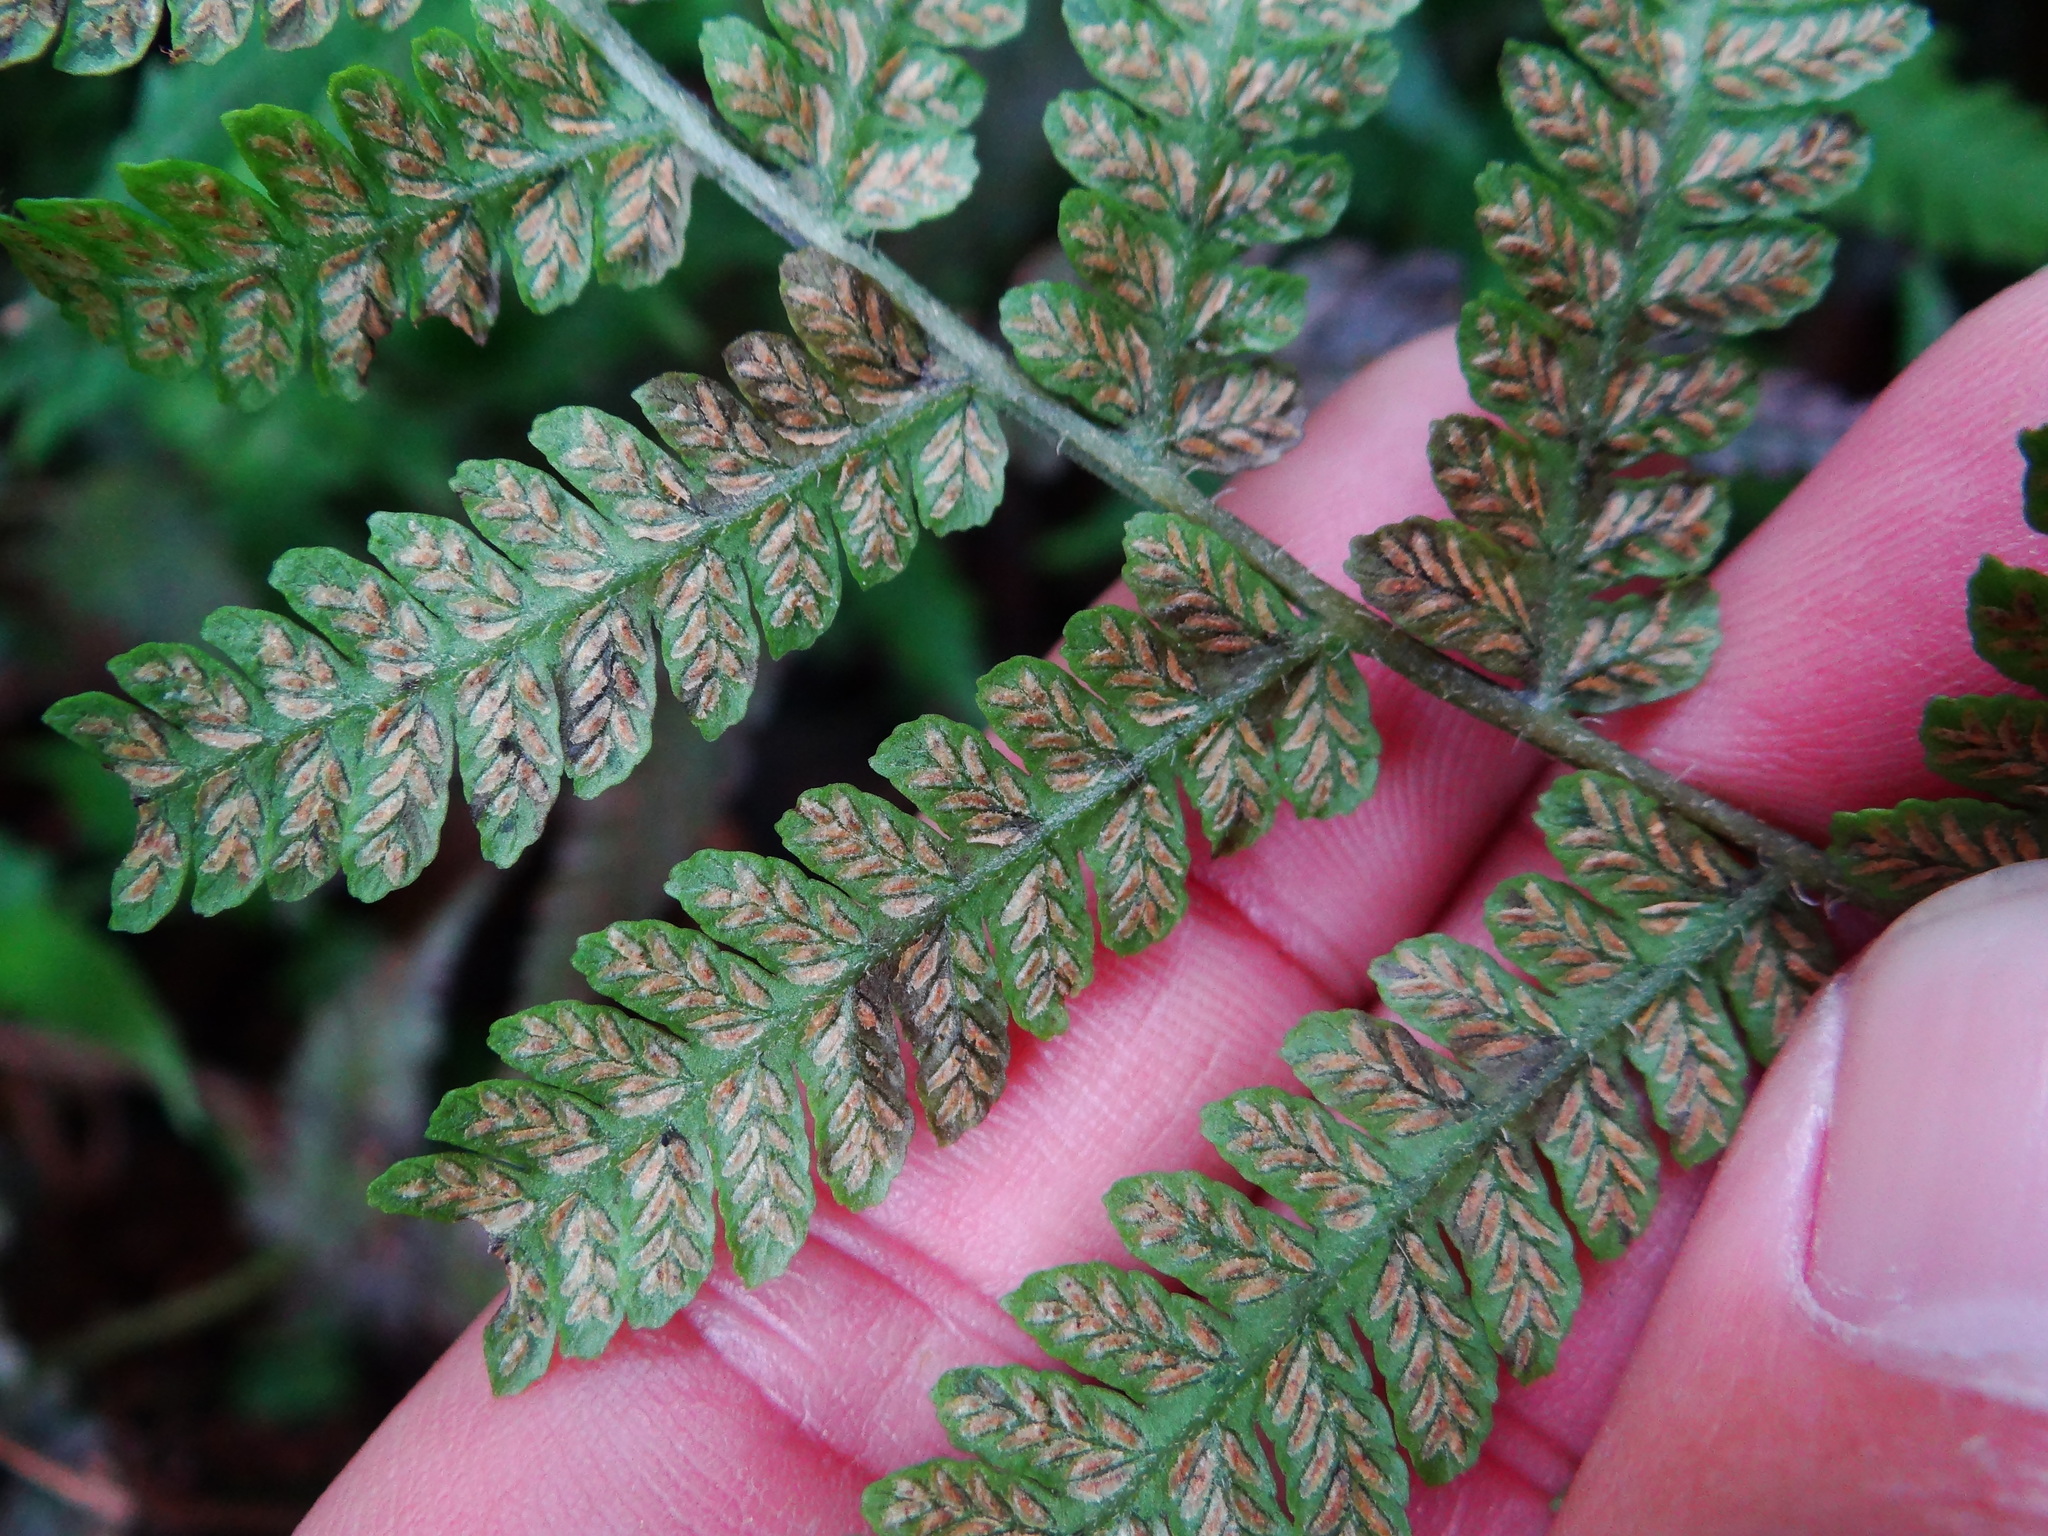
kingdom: Plantae
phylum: Tracheophyta
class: Polypodiopsida
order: Polypodiales
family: Athyriaceae
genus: Deparia
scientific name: Deparia petersenii
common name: Japanese false spleenwort
